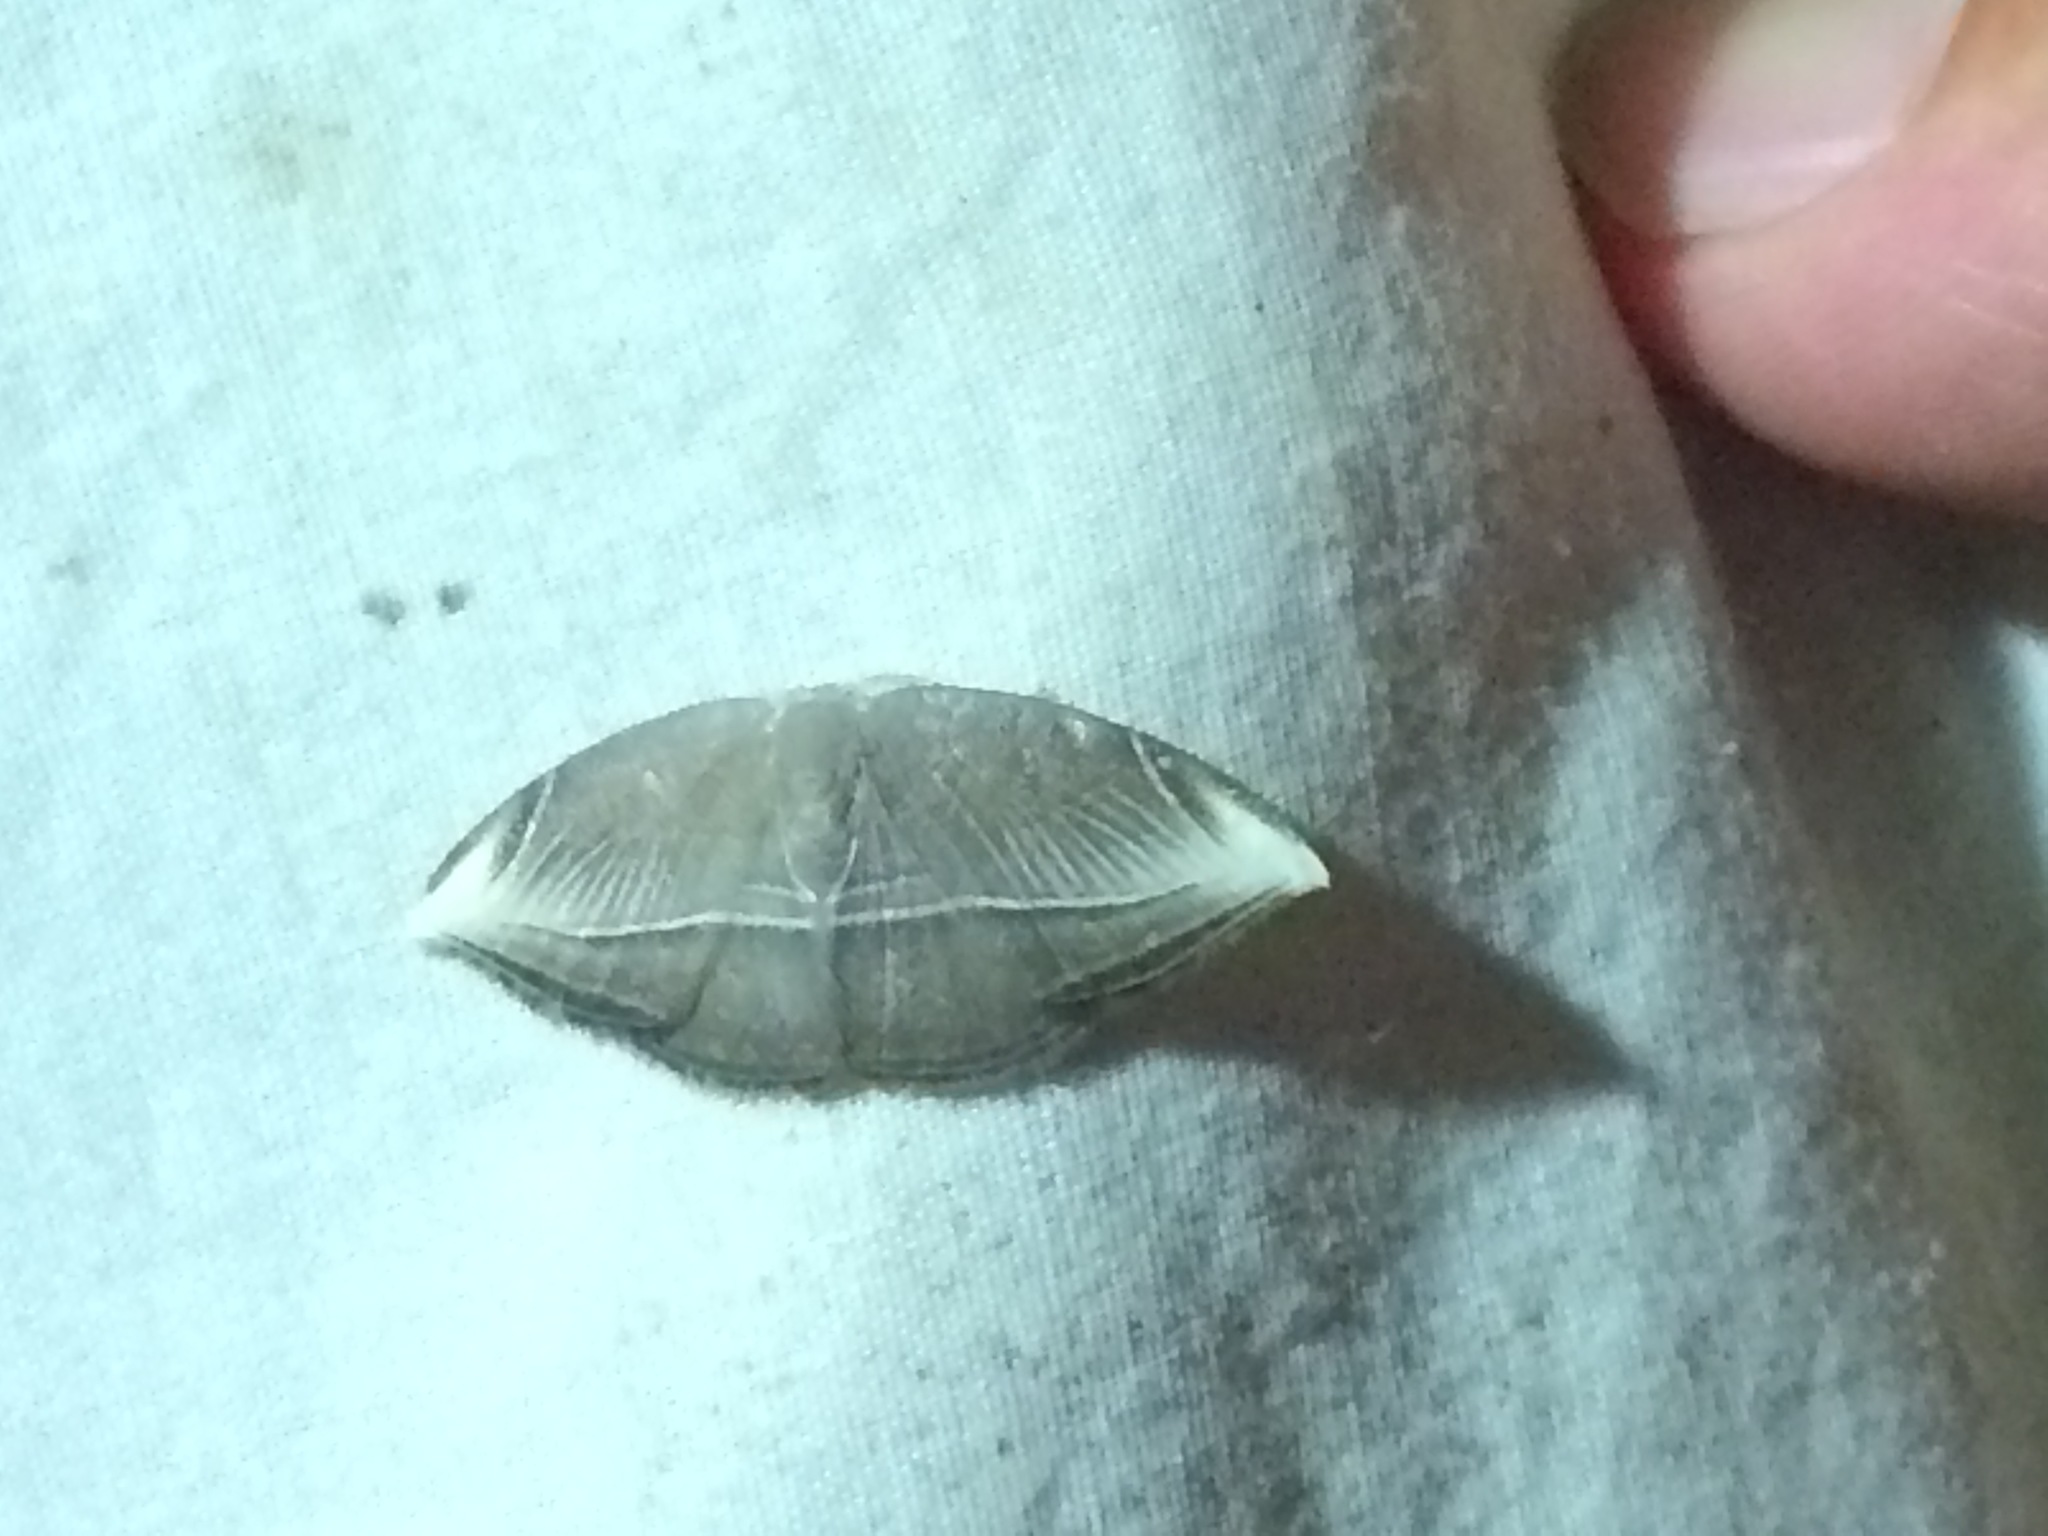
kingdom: Animalia
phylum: Arthropoda
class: Insecta
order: Lepidoptera
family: Drepanidae
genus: Microblepsis
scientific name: Microblepsis leucosticta
